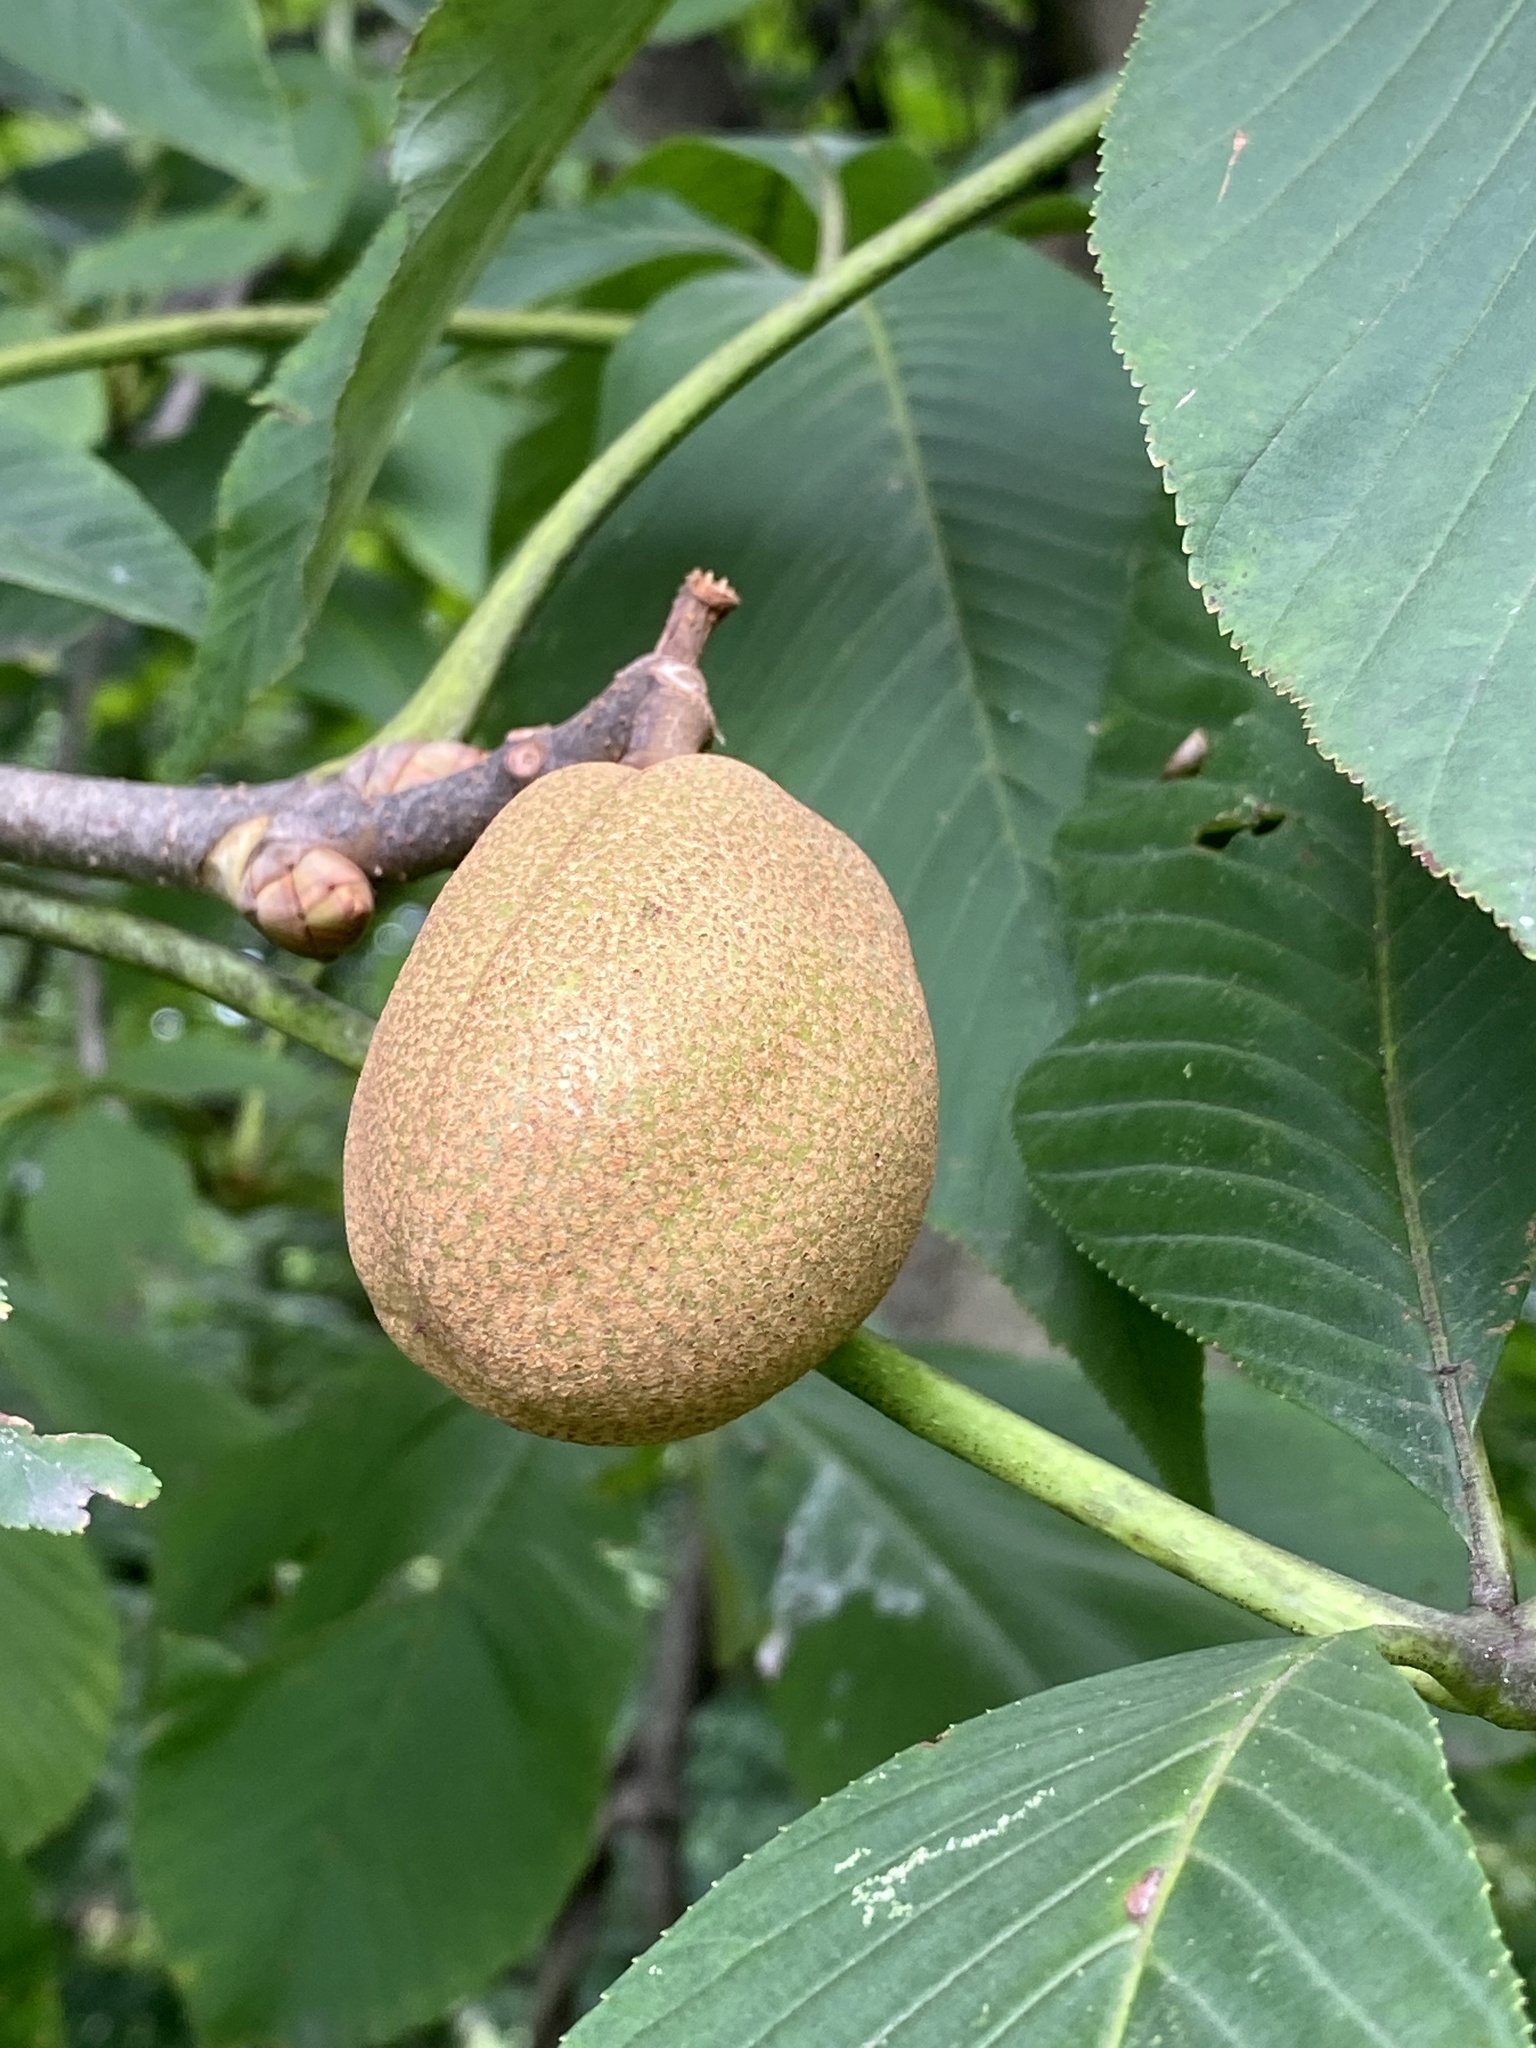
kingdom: Plantae
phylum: Tracheophyta
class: Magnoliopsida
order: Sapindales
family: Sapindaceae
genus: Aesculus
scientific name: Aesculus flava
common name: Yellow buckeye
